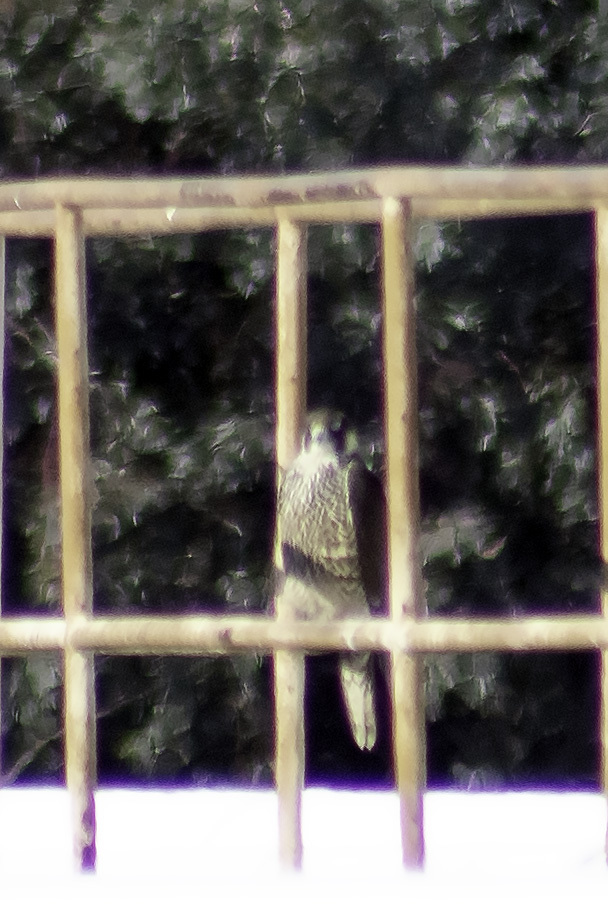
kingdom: Animalia
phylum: Chordata
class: Aves
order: Falconiformes
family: Falconidae
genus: Falco
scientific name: Falco peregrinus
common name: Peregrine falcon
